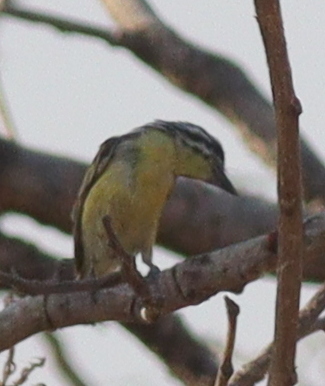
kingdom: Animalia
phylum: Chordata
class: Aves
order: Piciformes
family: Lybiidae
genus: Pogoniulus
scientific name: Pogoniulus chrysoconus
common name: Yellow-fronted tinkerbird
